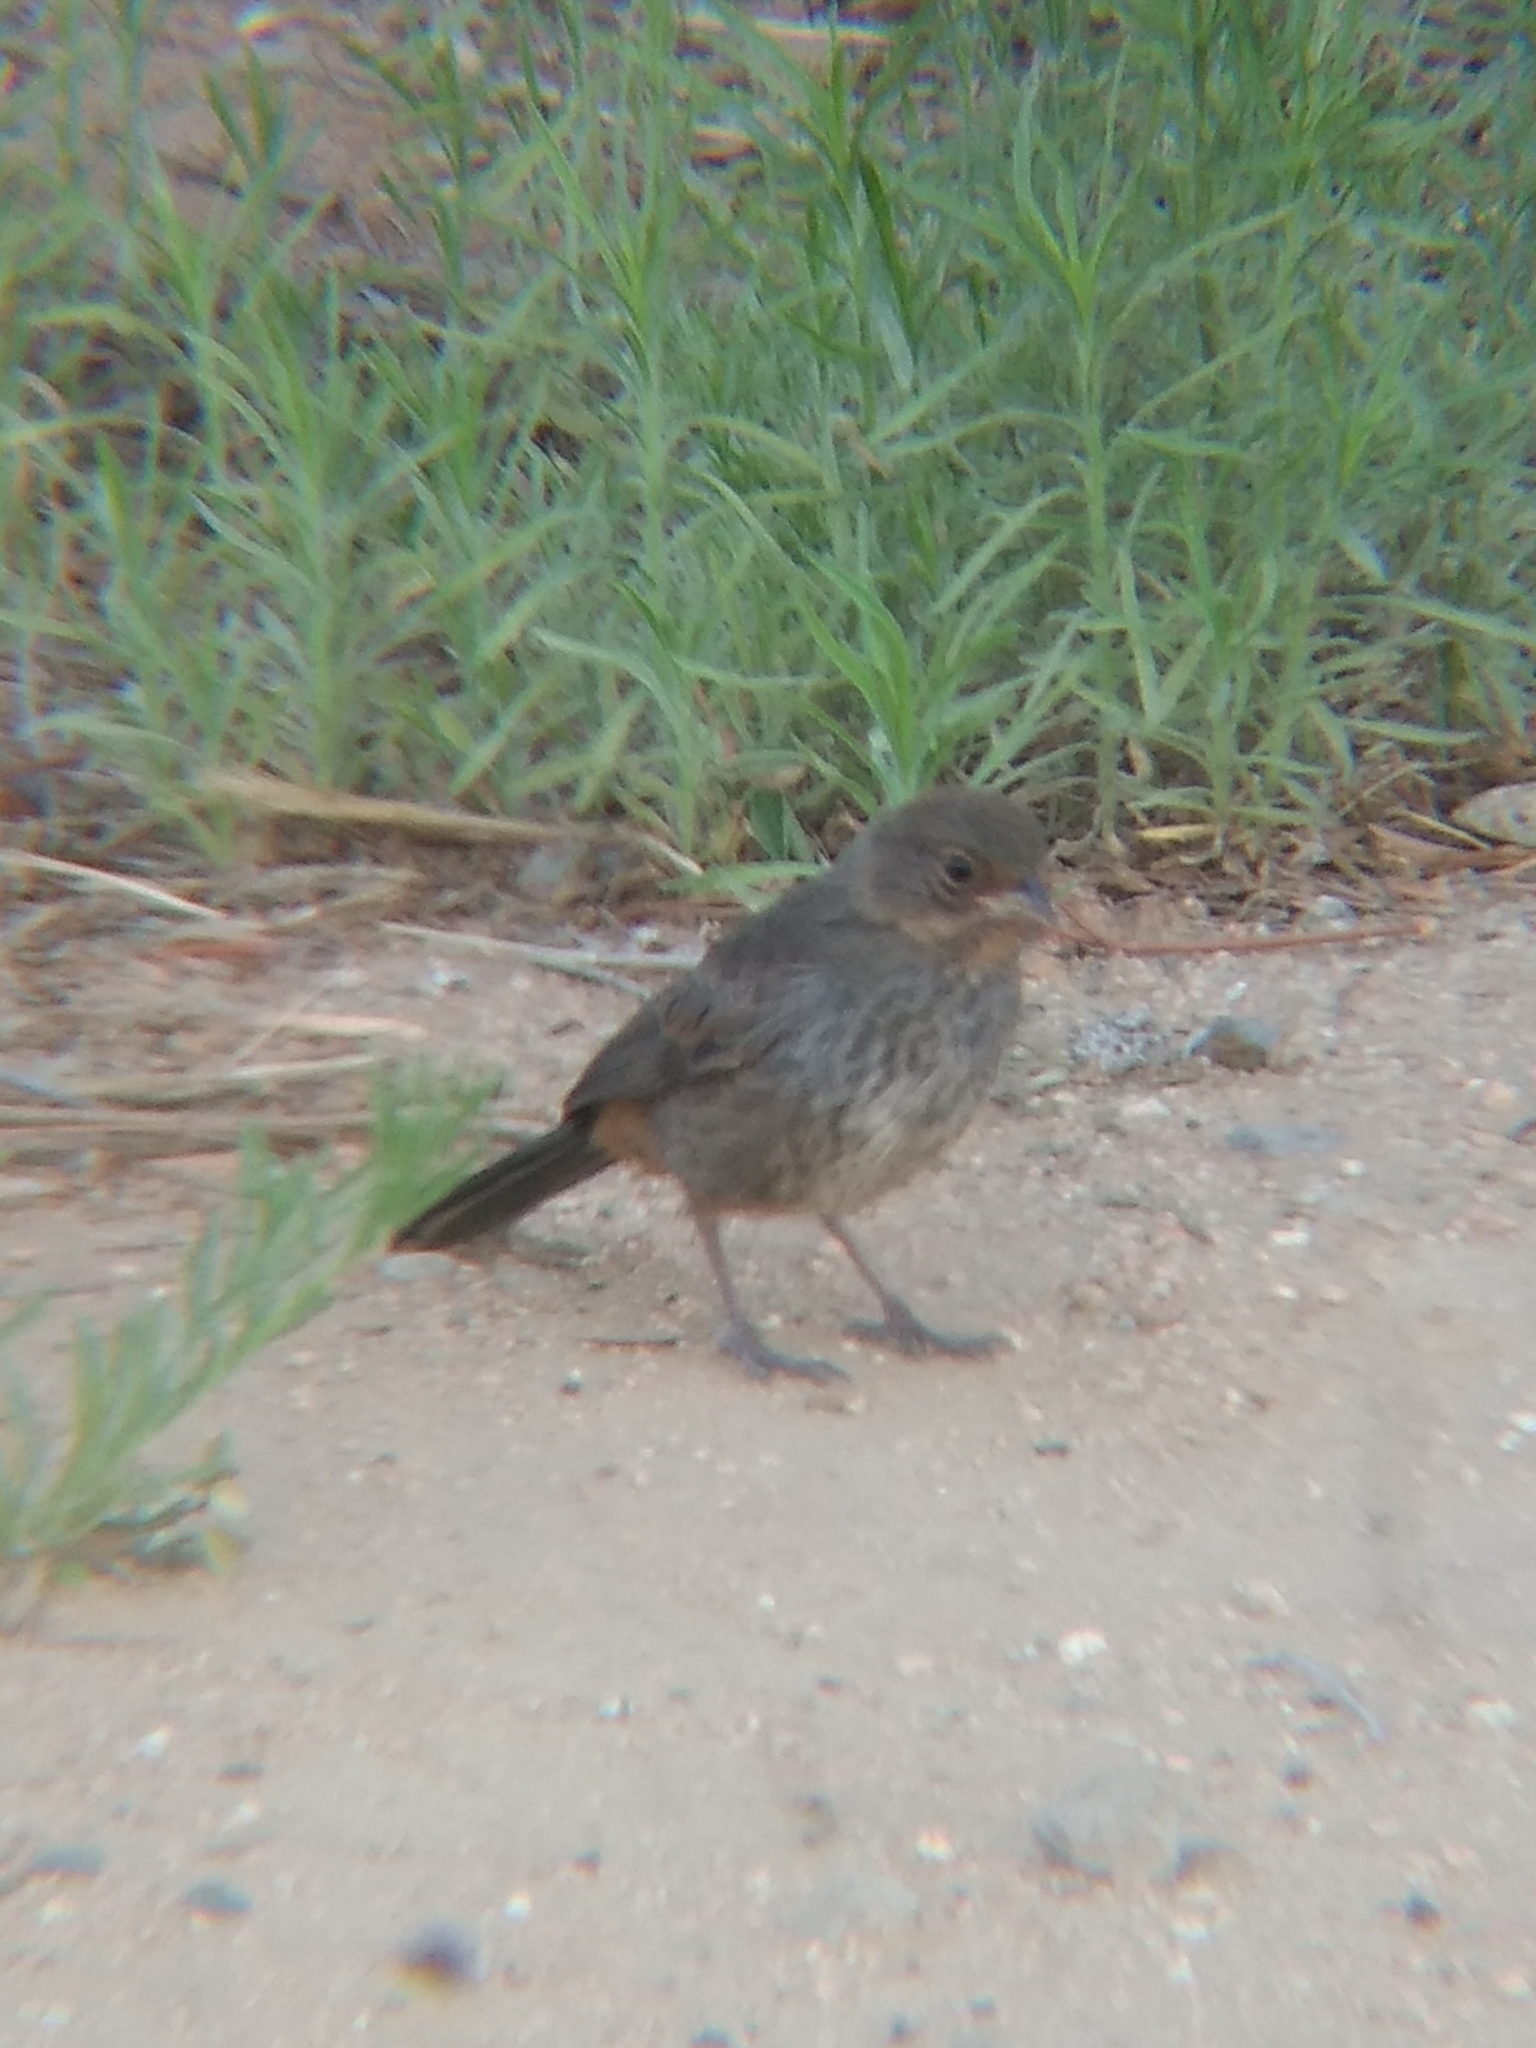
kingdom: Animalia
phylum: Chordata
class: Aves
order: Passeriformes
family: Passerellidae
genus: Melozone
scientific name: Melozone crissalis
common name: California towhee
